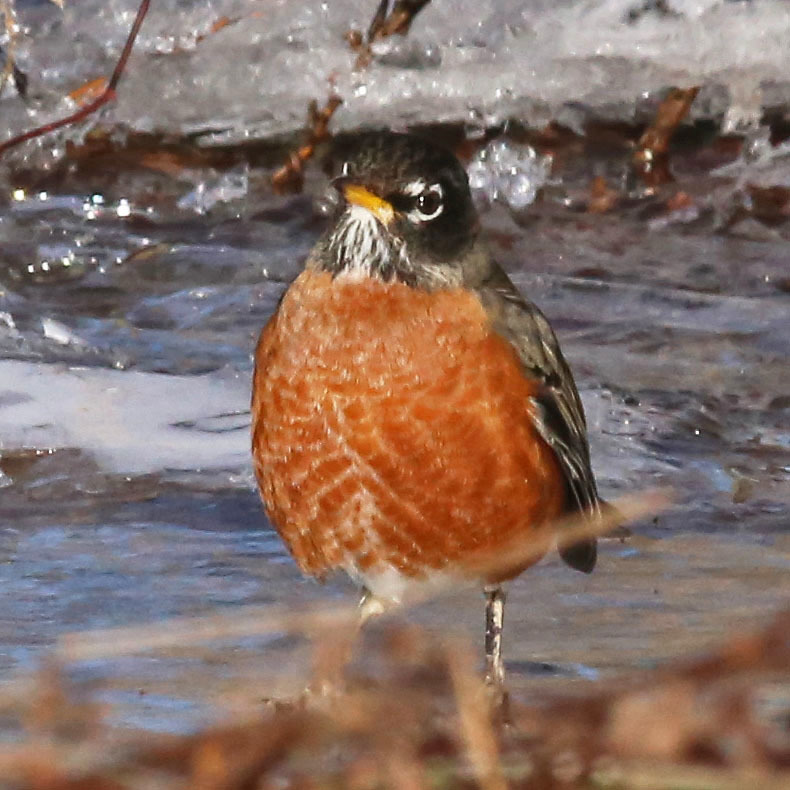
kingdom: Animalia
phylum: Chordata
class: Aves
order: Passeriformes
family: Turdidae
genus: Turdus
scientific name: Turdus migratorius
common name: American robin
